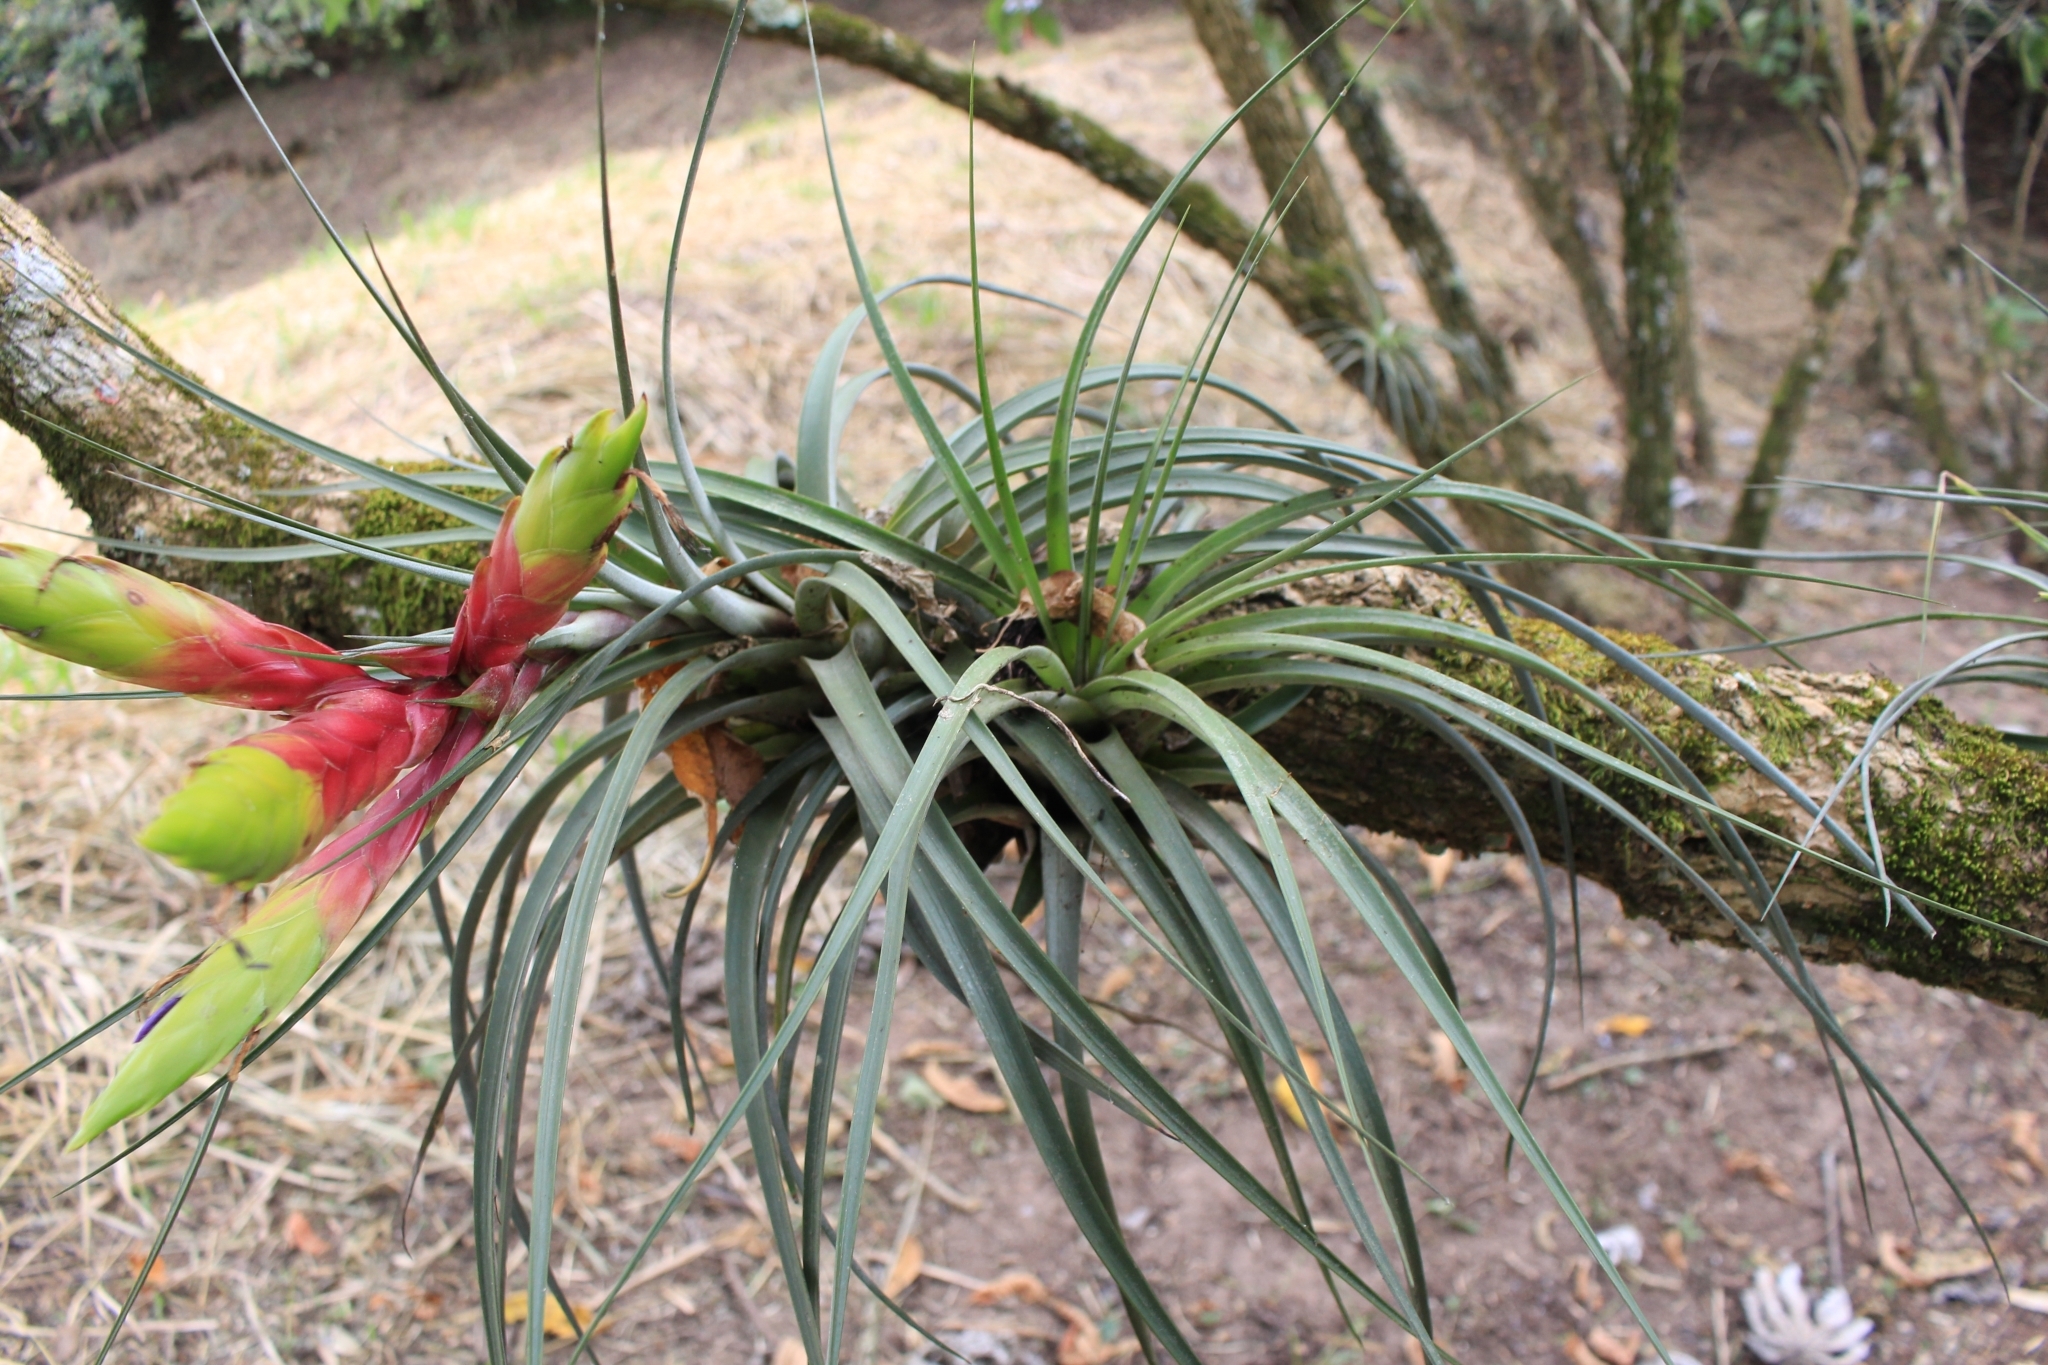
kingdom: Plantae
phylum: Tracheophyta
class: Liliopsida
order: Poales
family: Bromeliaceae
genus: Tillandsia
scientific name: Tillandsia fasciculata
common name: Giant airplant
